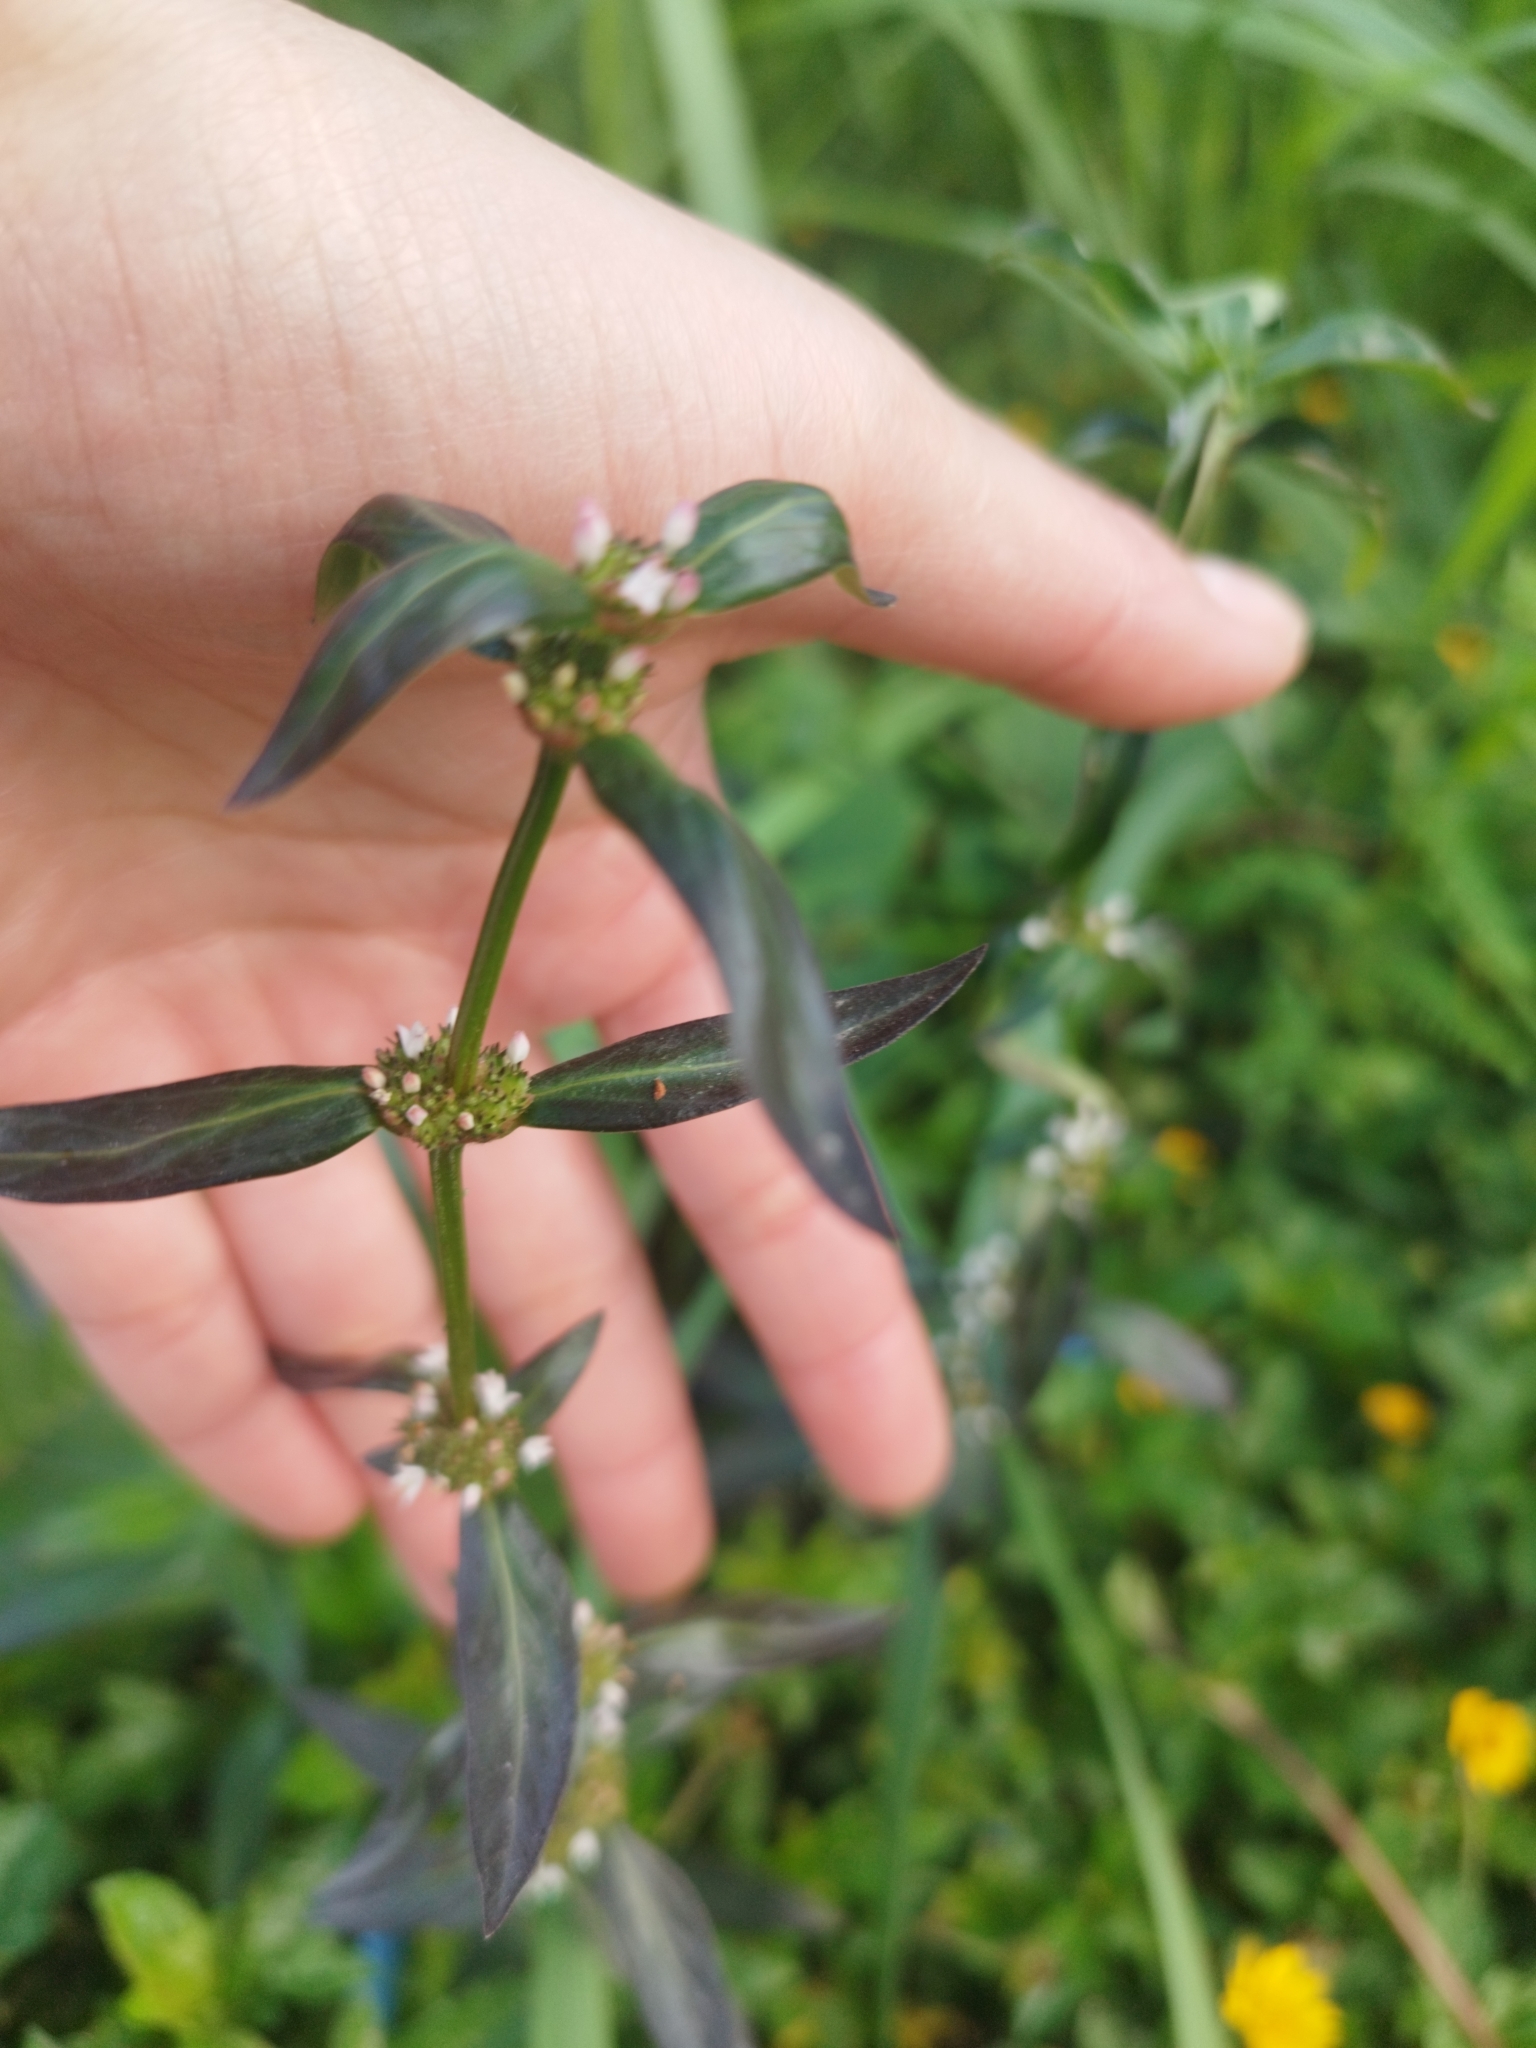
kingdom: Plantae
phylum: Tracheophyta
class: Magnoliopsida
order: Gentianales
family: Rubiaceae
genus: Spermacoce
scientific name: Spermacoce remota
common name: Woodland false buttonweed
